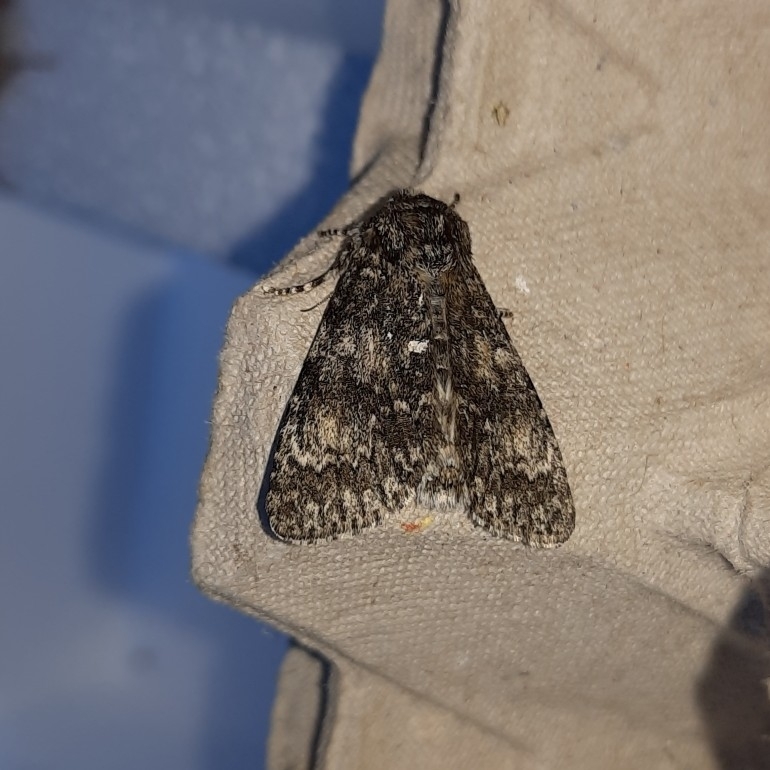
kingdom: Animalia
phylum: Arthropoda
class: Insecta
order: Lepidoptera
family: Noctuidae
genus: Acronicta
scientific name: Acronicta megacephala
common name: Poplar grey
